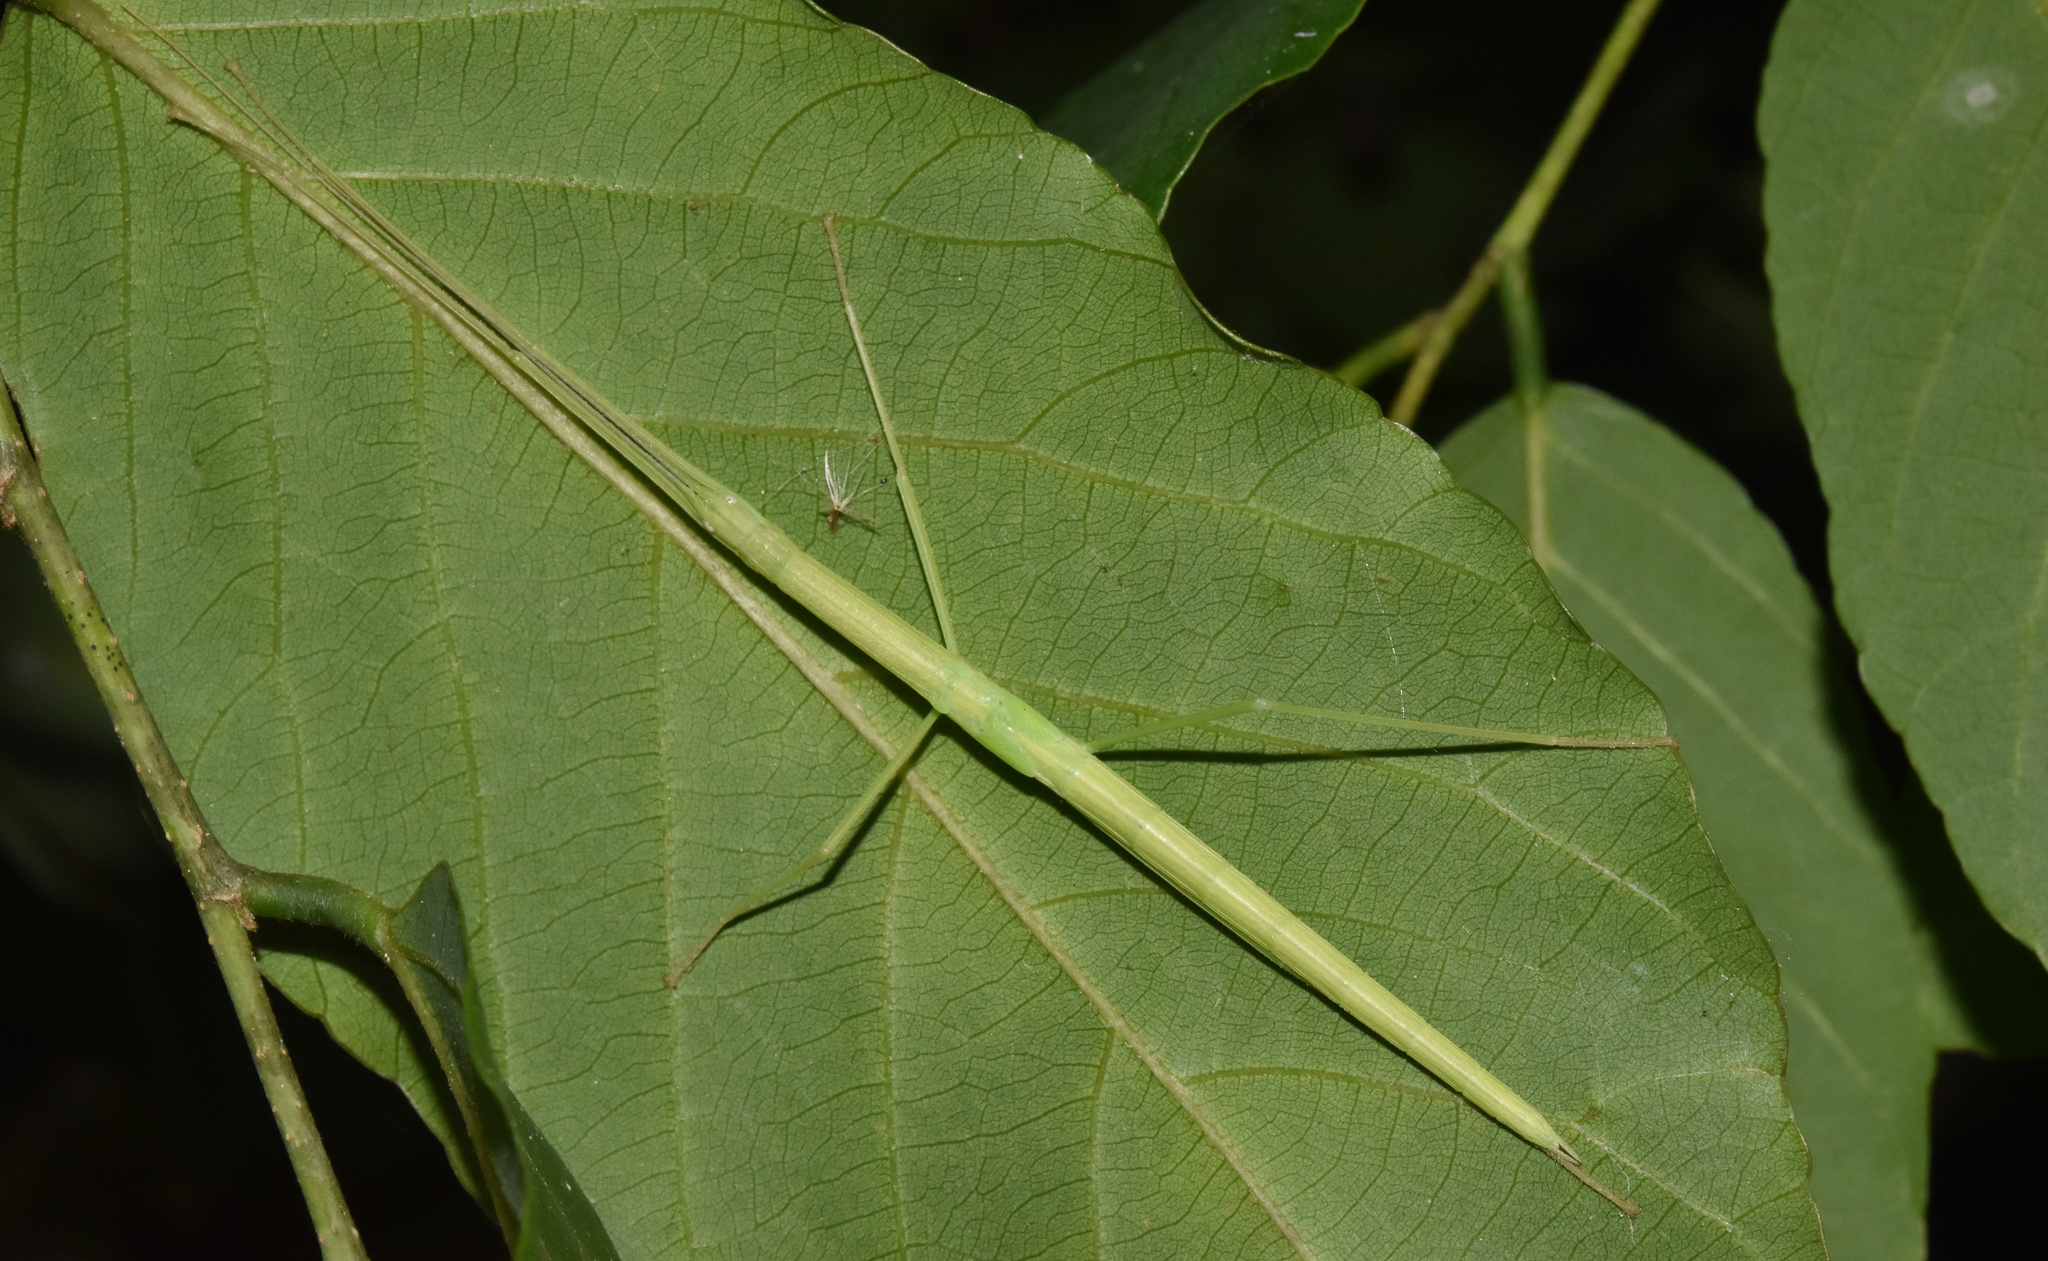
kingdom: Animalia
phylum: Arthropoda
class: Insecta
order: Phasmida
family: Lonchodidae
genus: Sipyloidea
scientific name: Sipyloidea sipylus
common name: Madagascan stick insect
